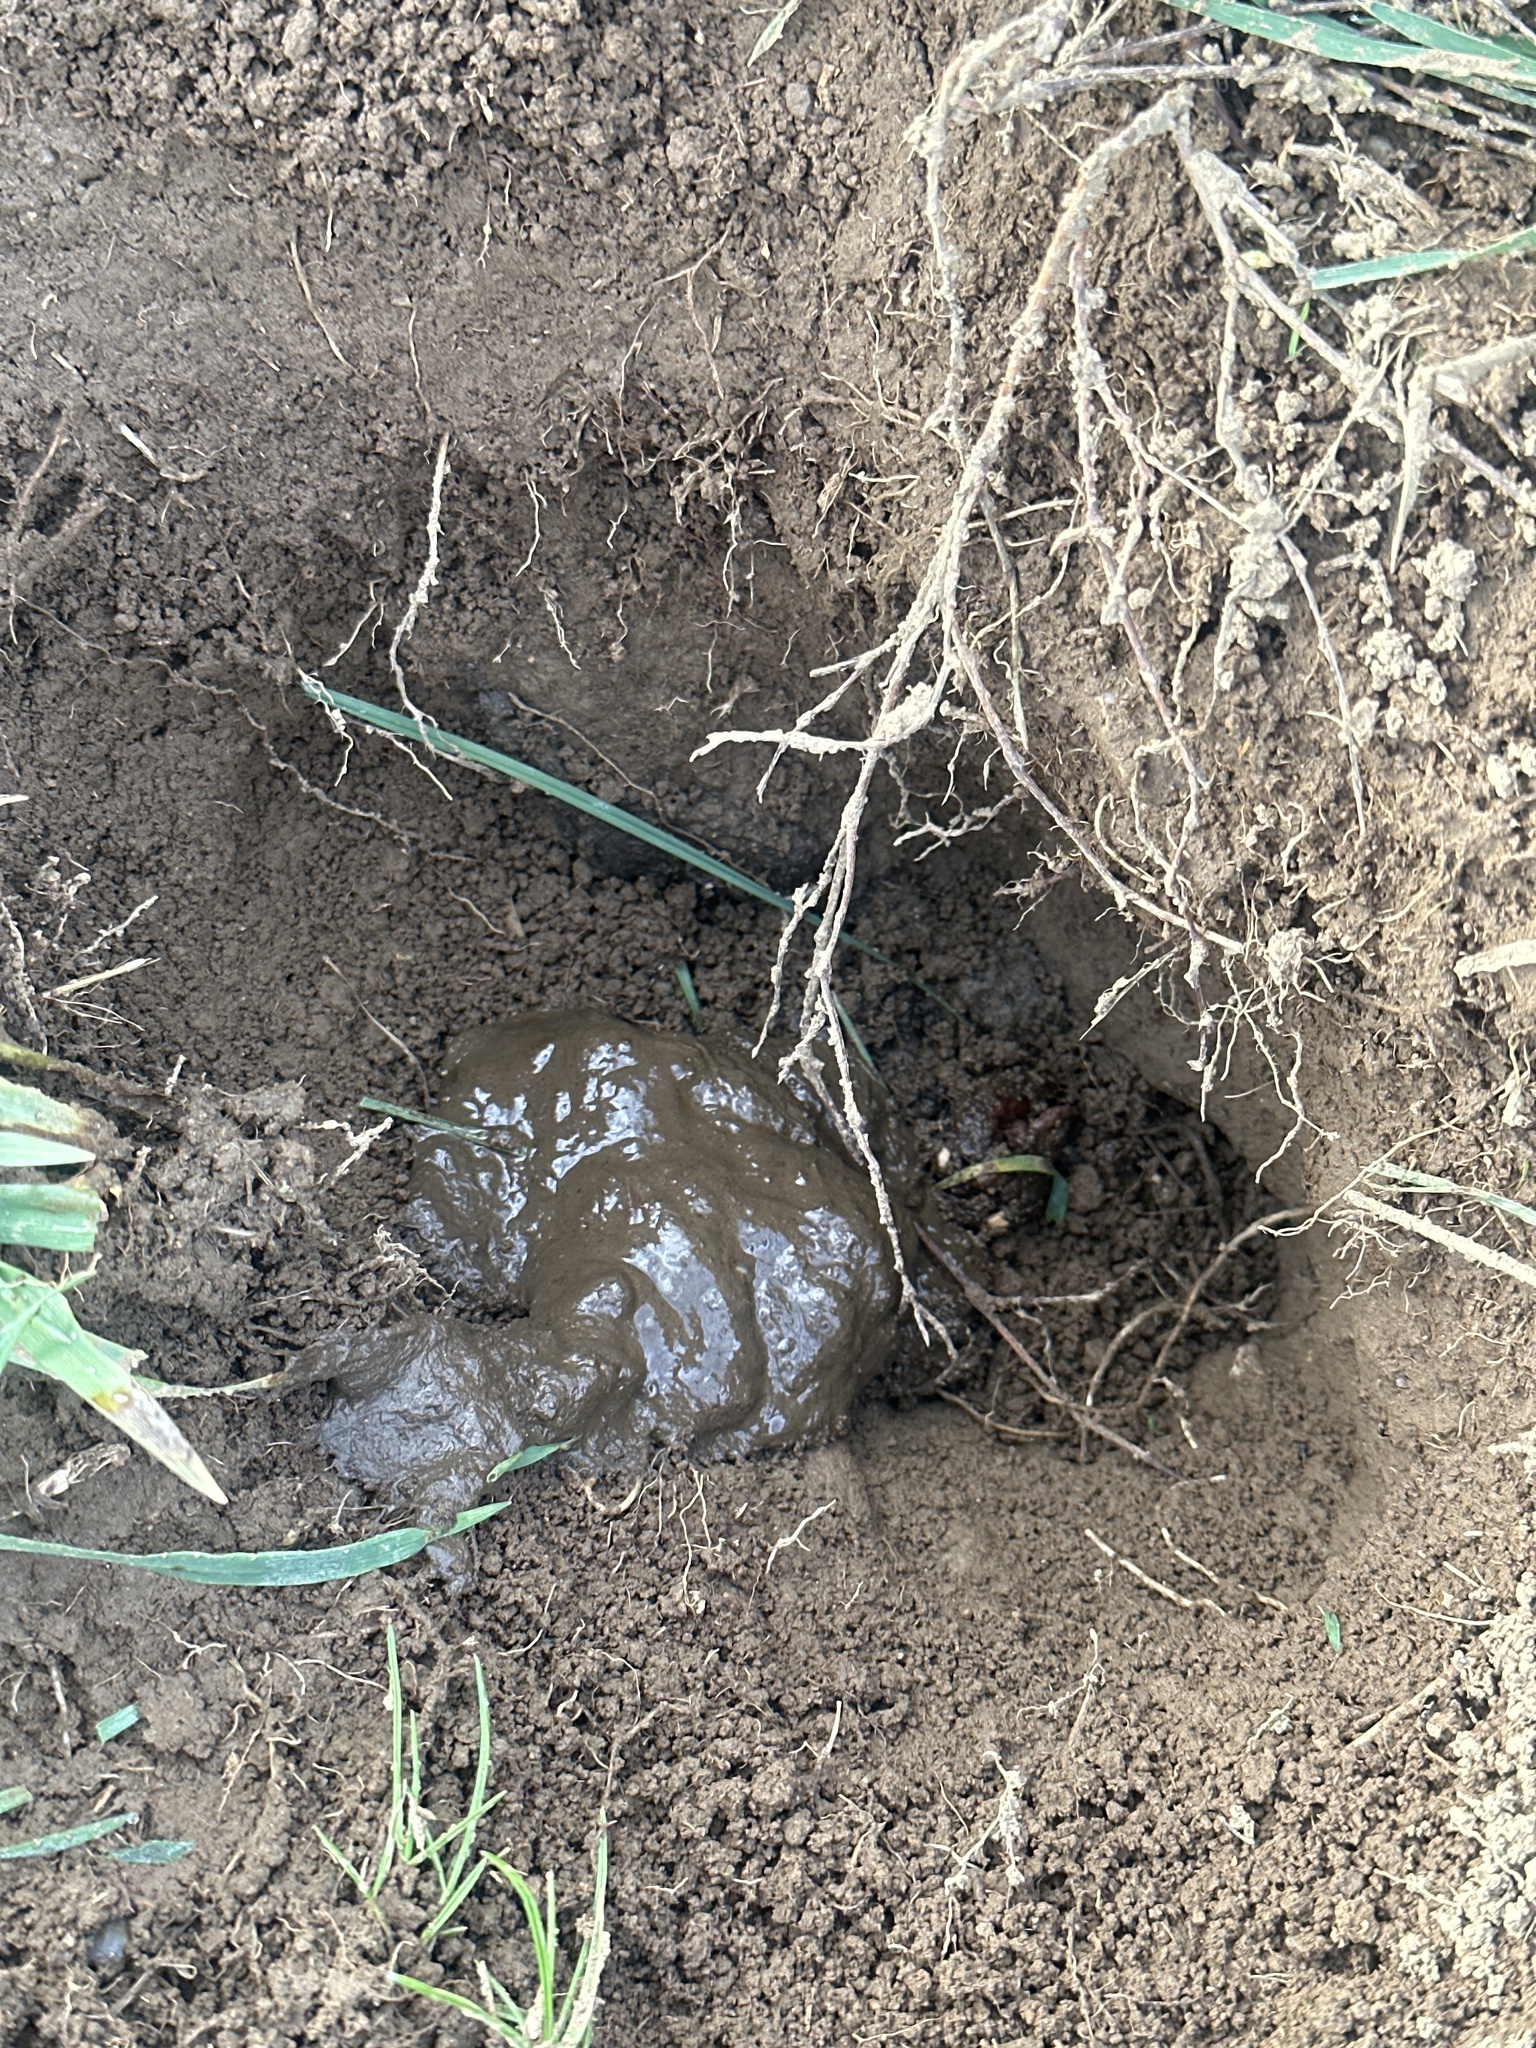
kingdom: Animalia
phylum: Chordata
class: Mammalia
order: Carnivora
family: Mustelidae
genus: Meles
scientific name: Meles meles
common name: Eurasian badger
